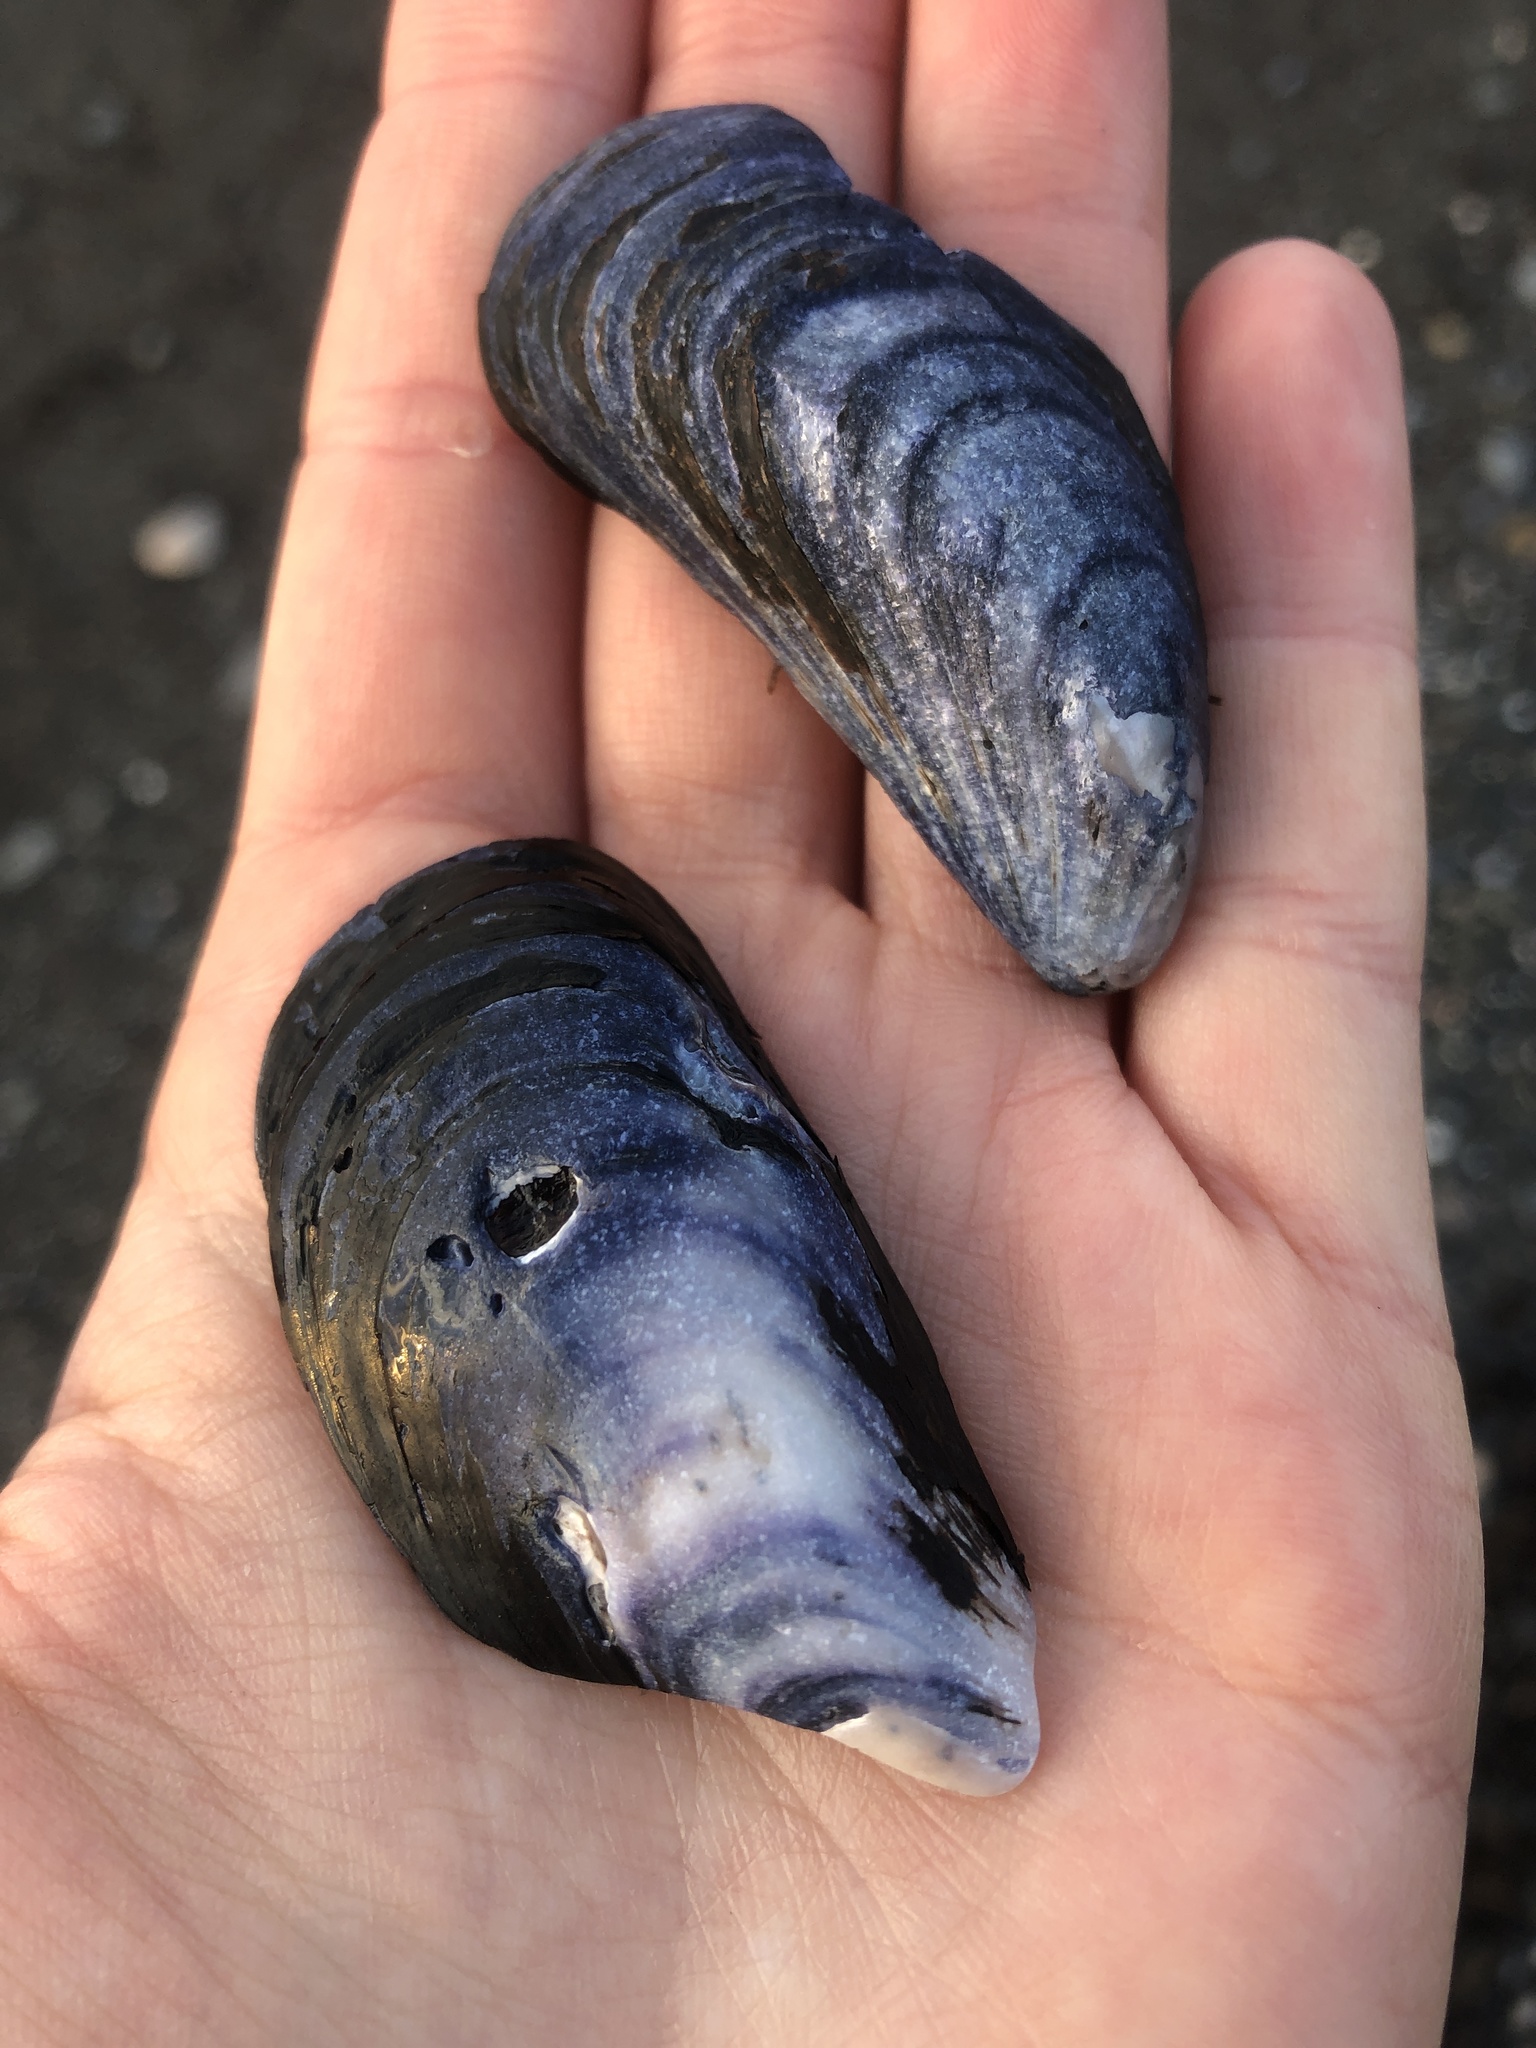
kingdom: Animalia
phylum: Mollusca
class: Bivalvia
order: Mytilida
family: Mytilidae
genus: Mytilus
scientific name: Mytilus edulis
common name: Blue mussel
